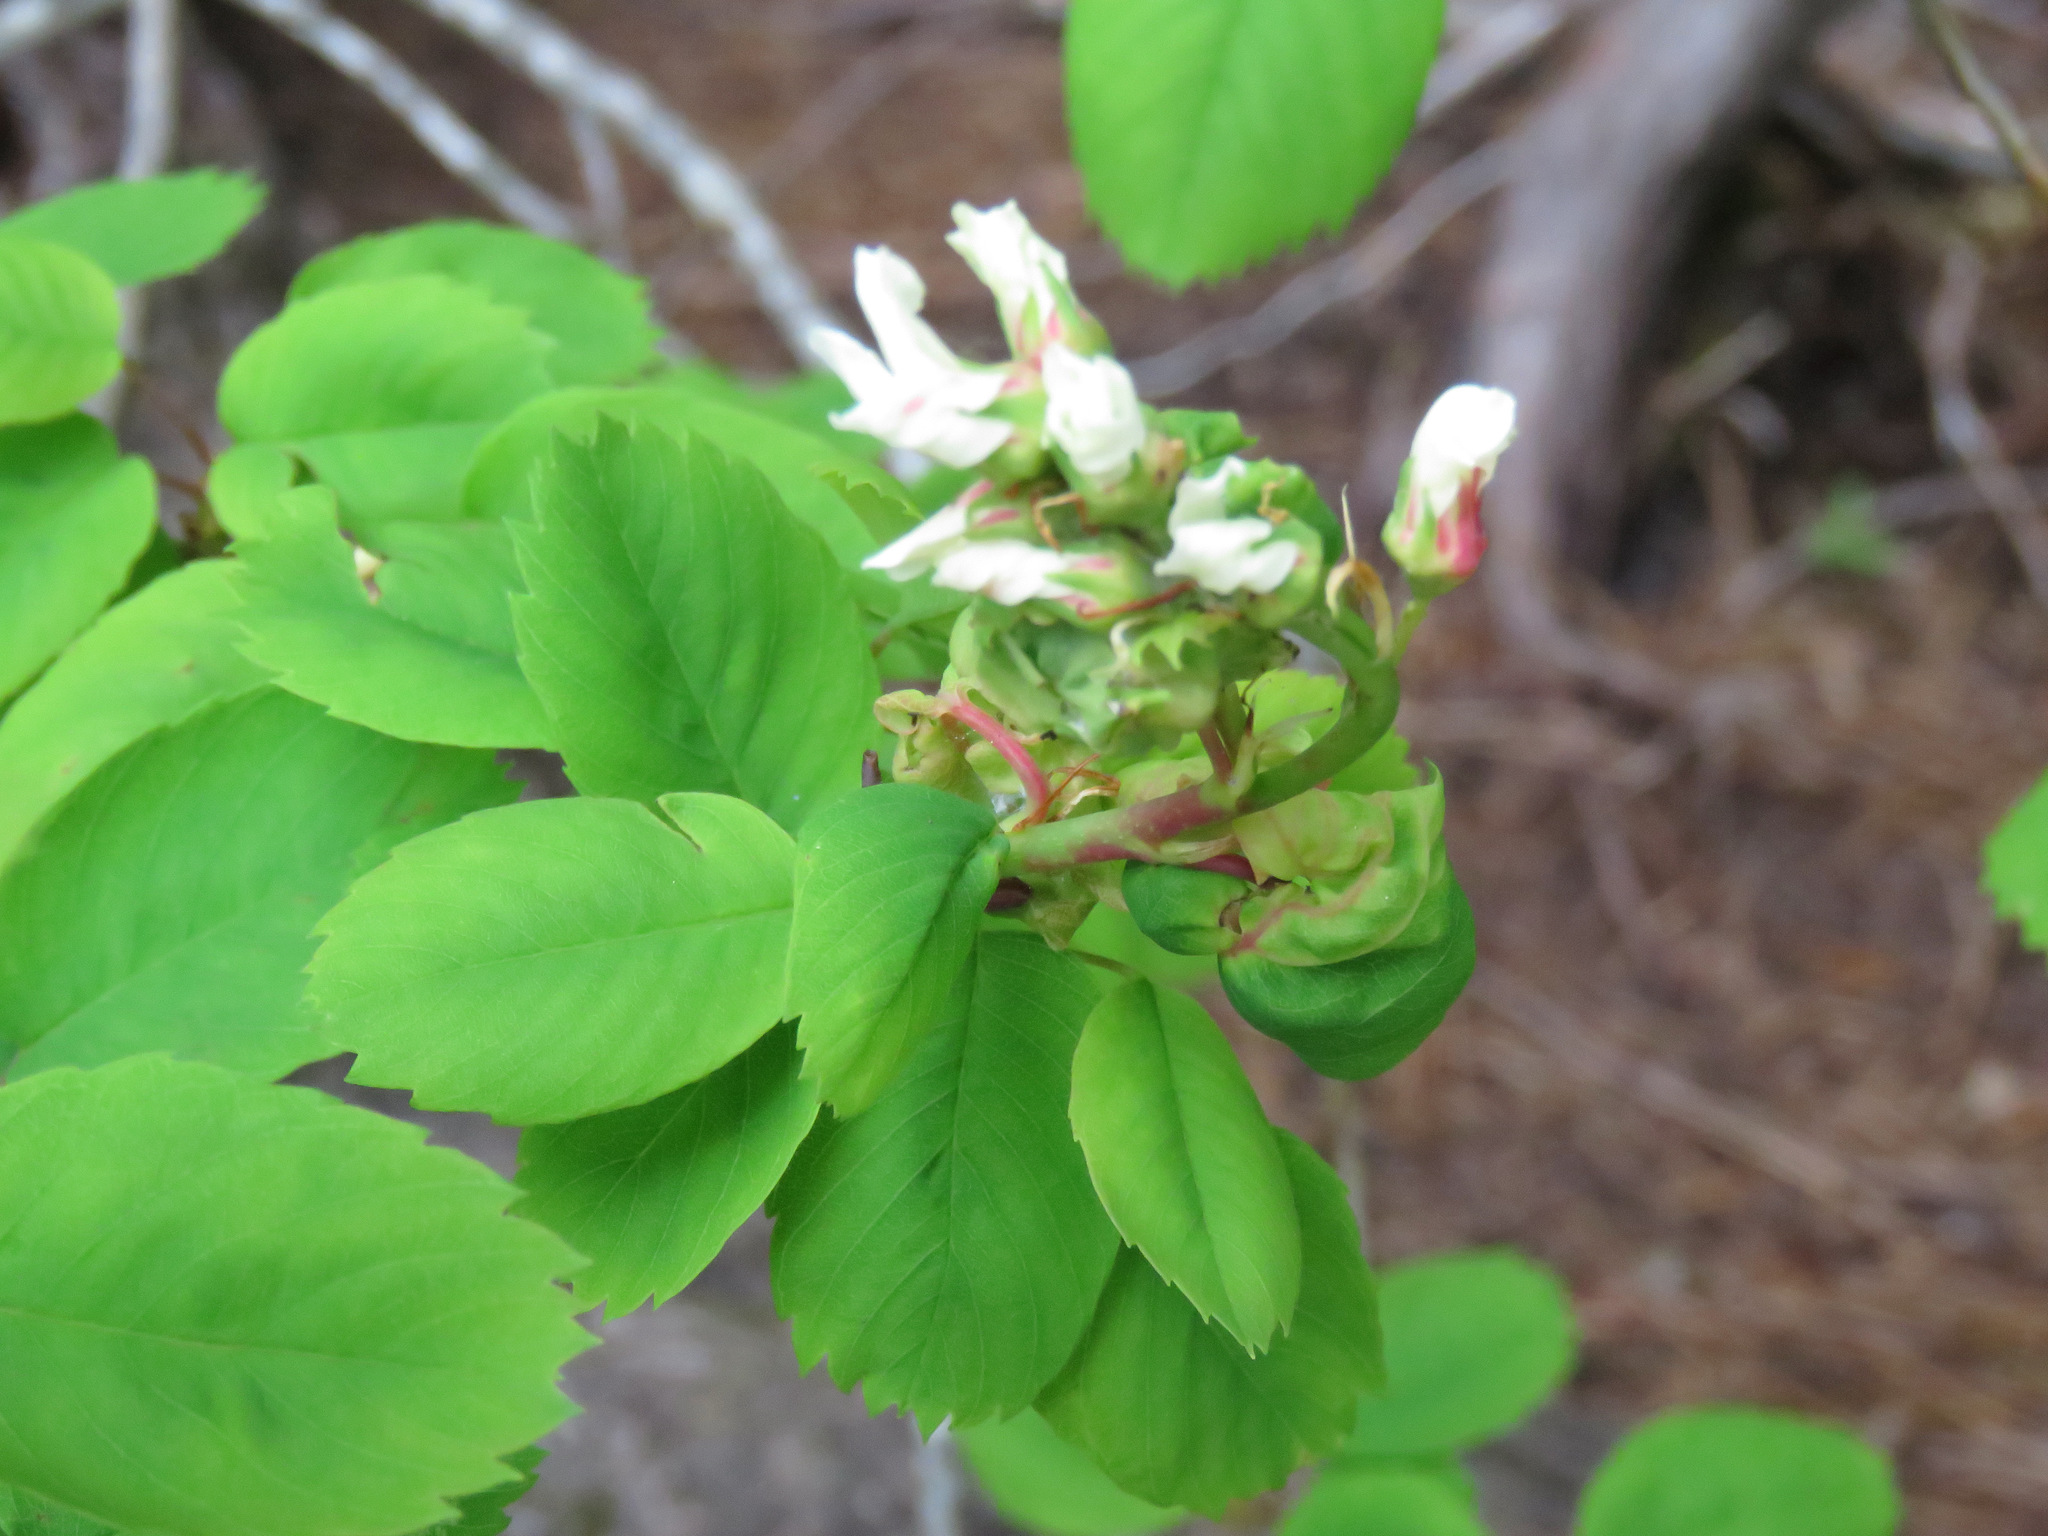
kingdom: Plantae
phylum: Tracheophyta
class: Magnoliopsida
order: Rosales
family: Rosaceae
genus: Amelanchier
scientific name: Amelanchier alnifolia
